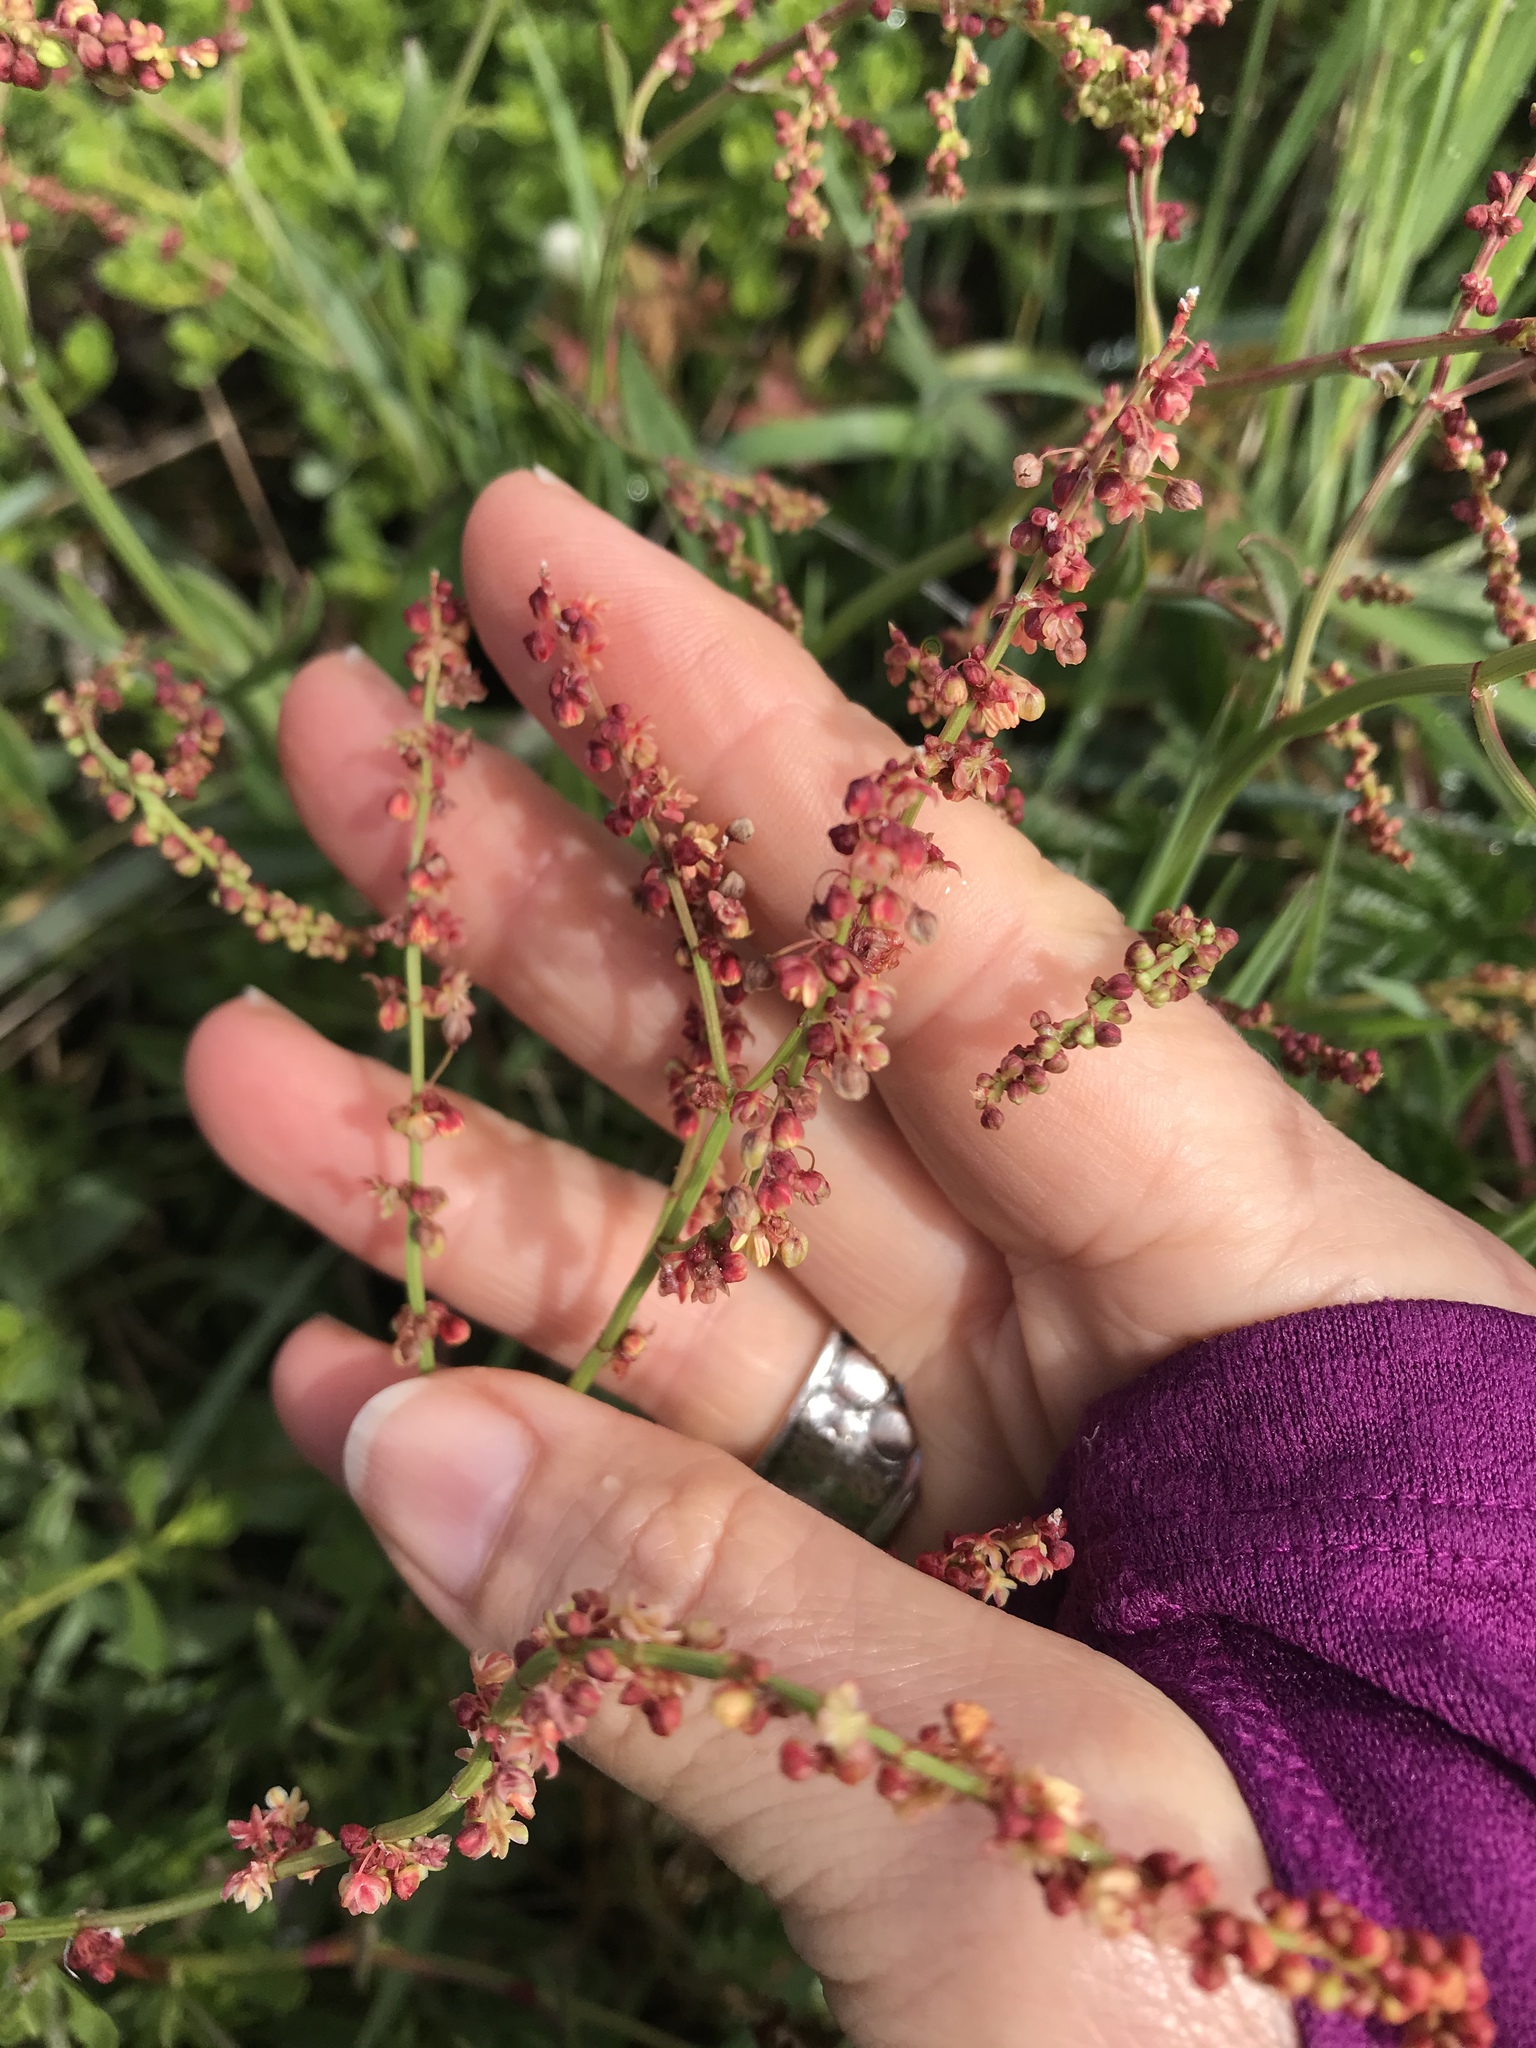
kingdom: Plantae
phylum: Tracheophyta
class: Magnoliopsida
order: Caryophyllales
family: Polygonaceae
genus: Rumex
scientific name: Rumex acetosella
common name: Common sheep sorrel
